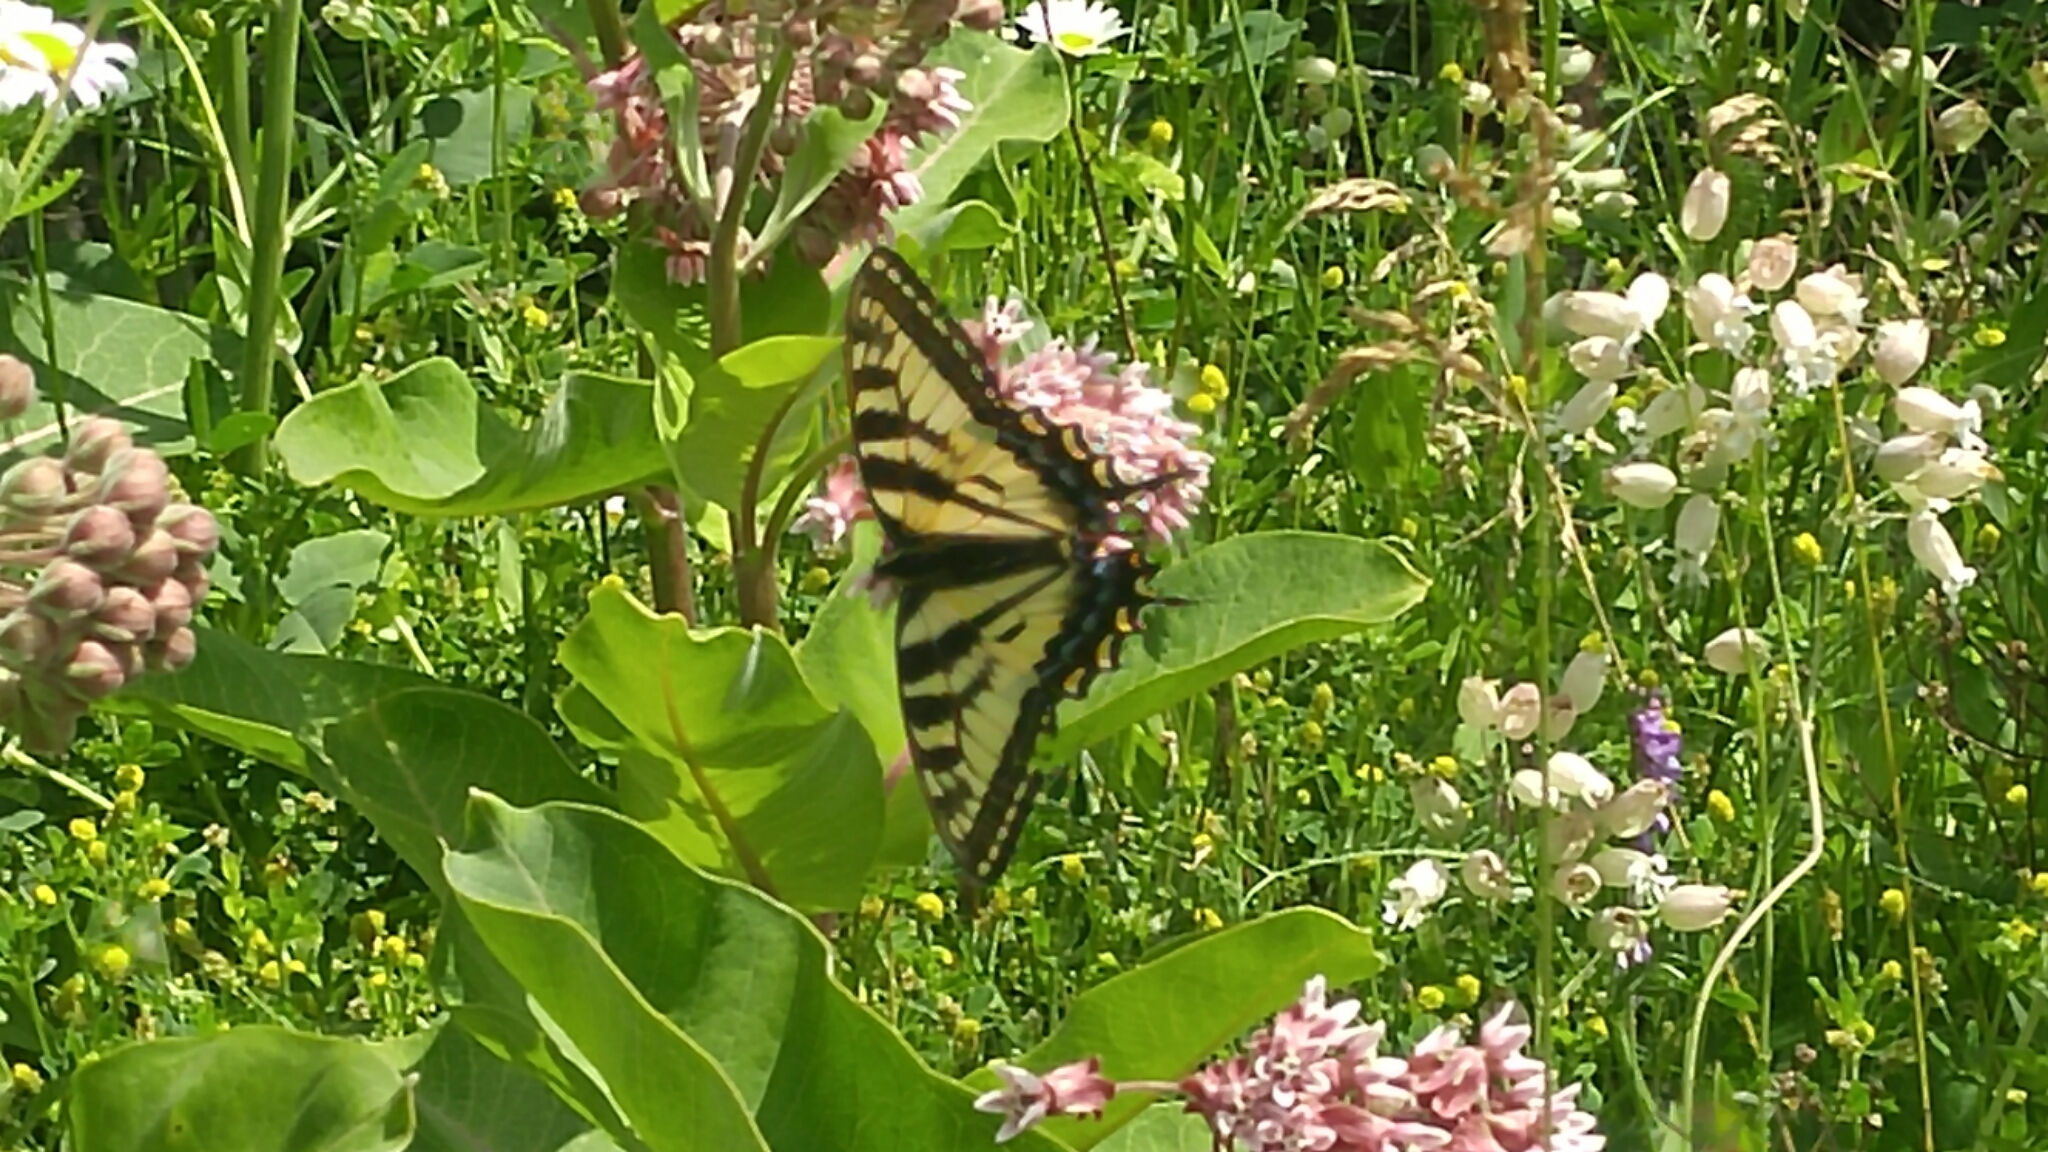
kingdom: Animalia
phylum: Arthropoda
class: Insecta
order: Lepidoptera
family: Papilionidae
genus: Papilio
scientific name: Papilio canadensis
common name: Canadian tiger swallowtail
